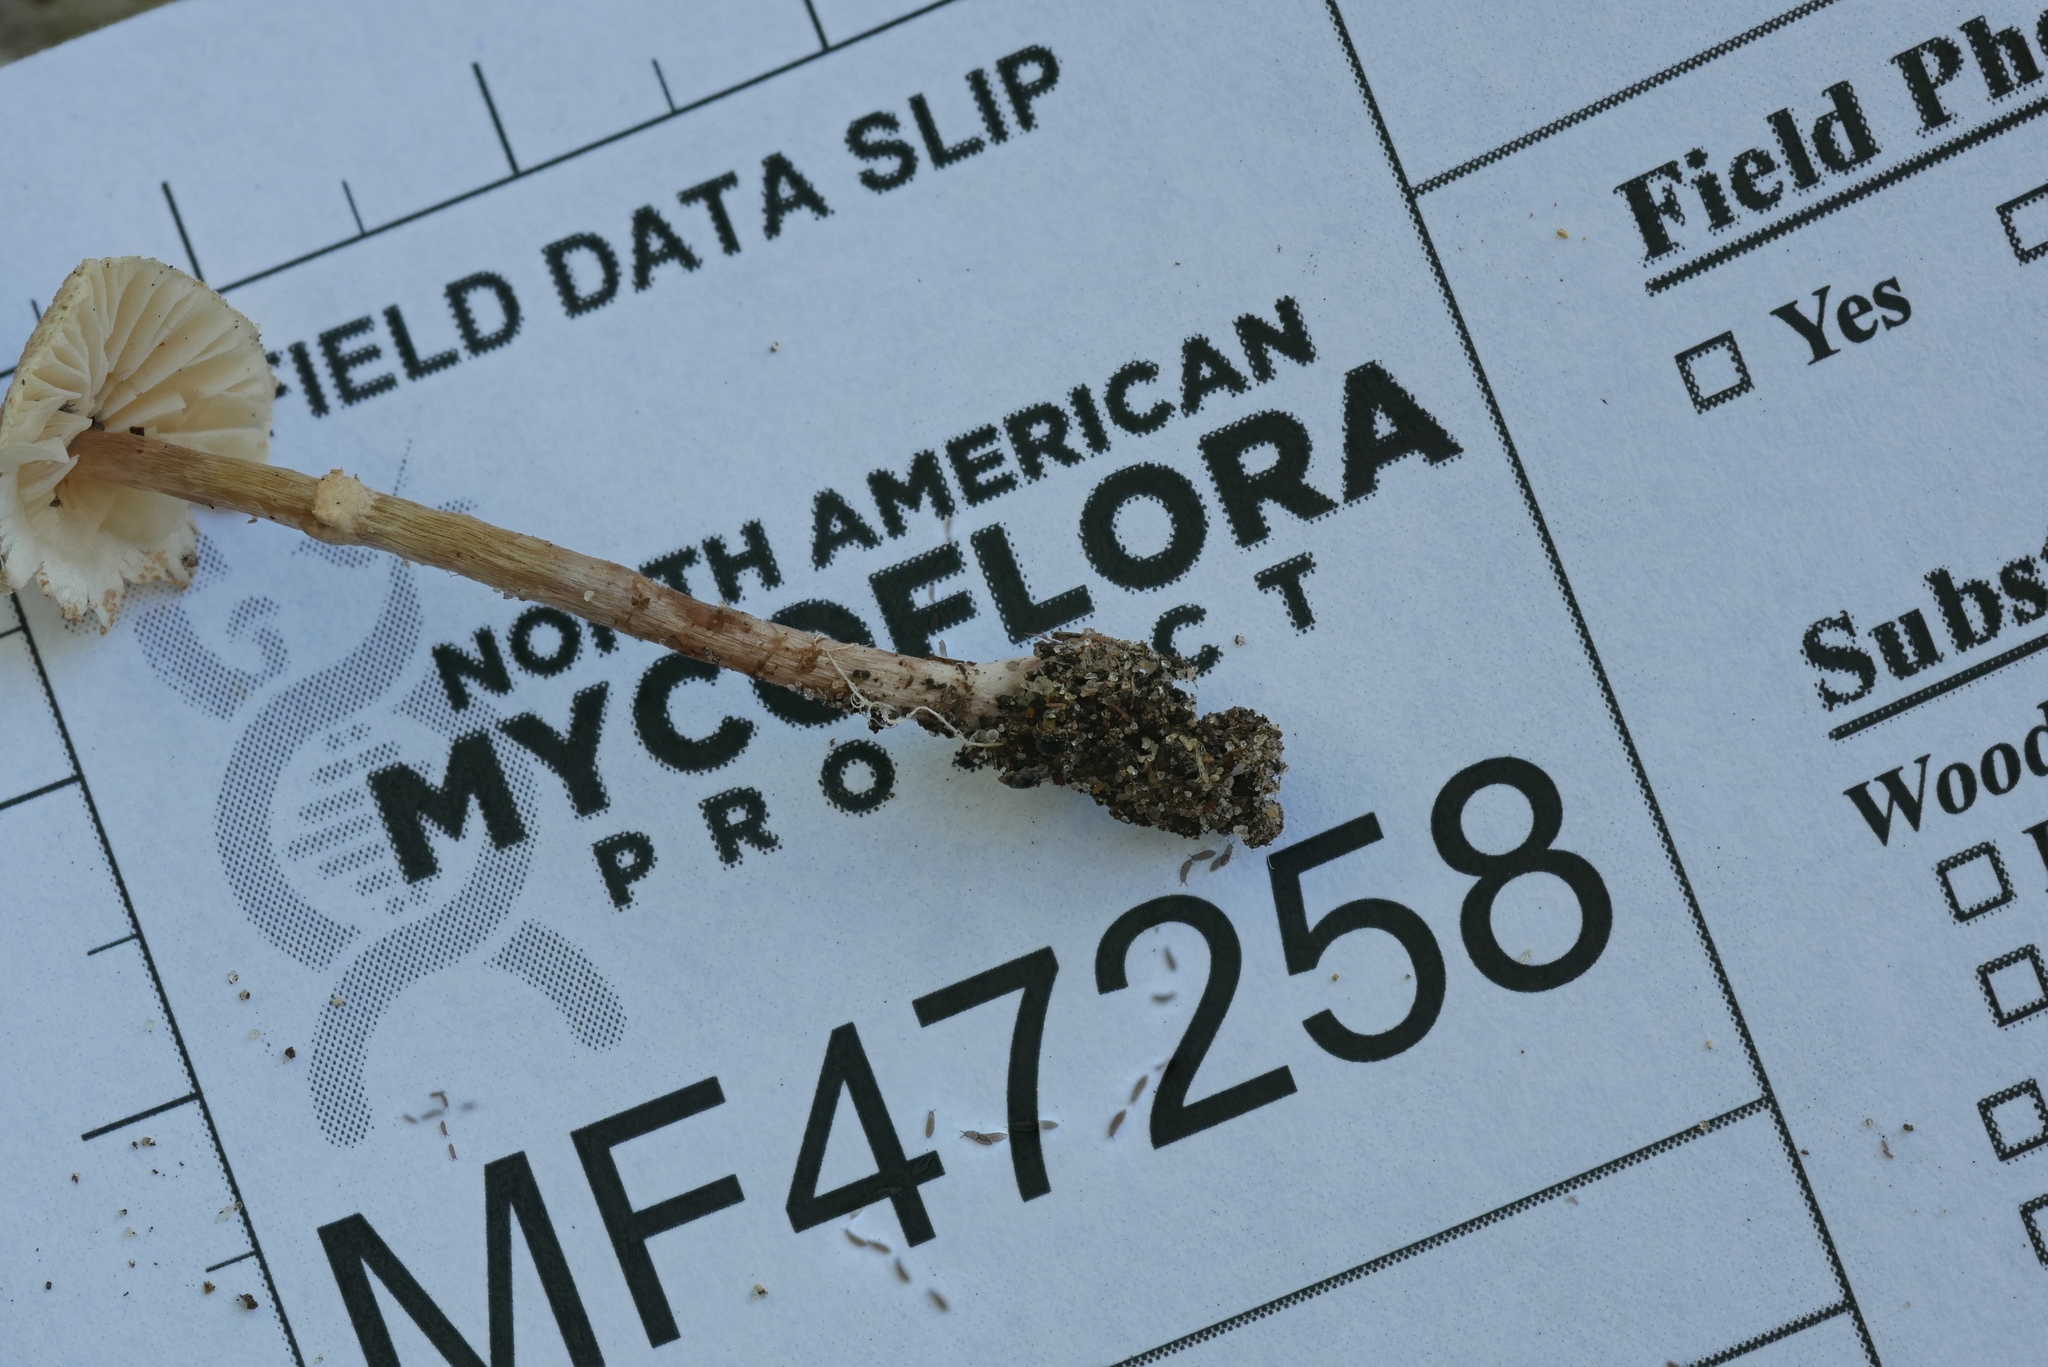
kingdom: Fungi
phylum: Basidiomycota
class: Agaricomycetes
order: Agaricales
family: Agaricaceae
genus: Lepiota
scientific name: Lepiota cristata
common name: Stinking dapperling
